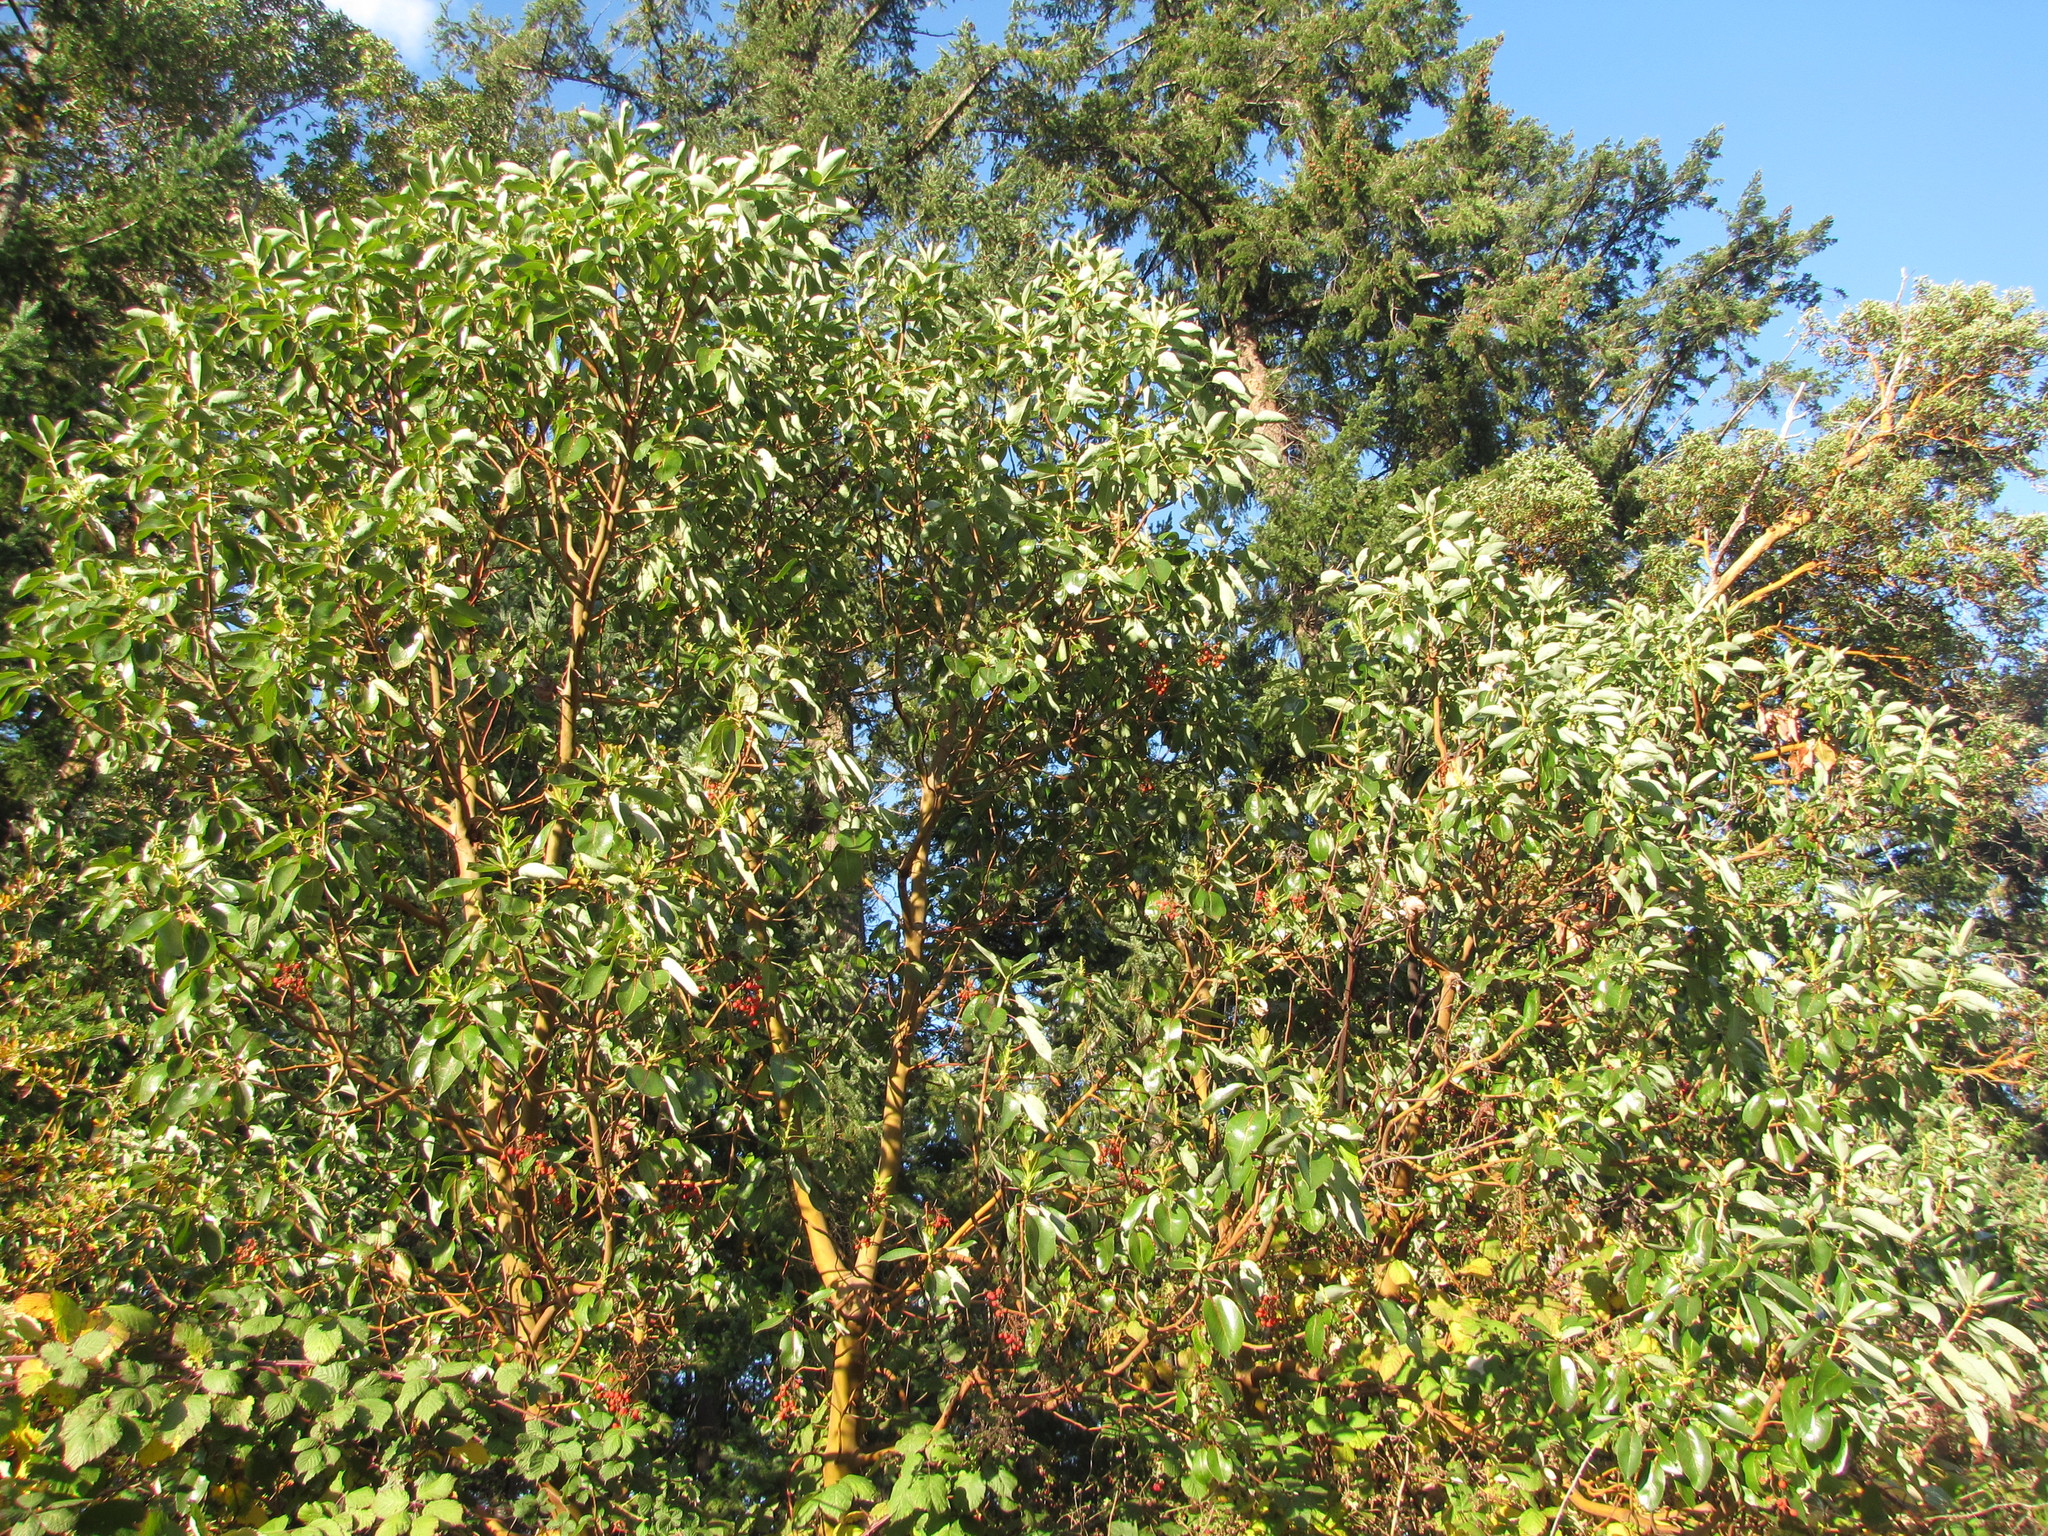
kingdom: Plantae
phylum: Tracheophyta
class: Magnoliopsida
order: Ericales
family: Ericaceae
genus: Arbutus
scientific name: Arbutus menziesii
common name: Pacific madrone
